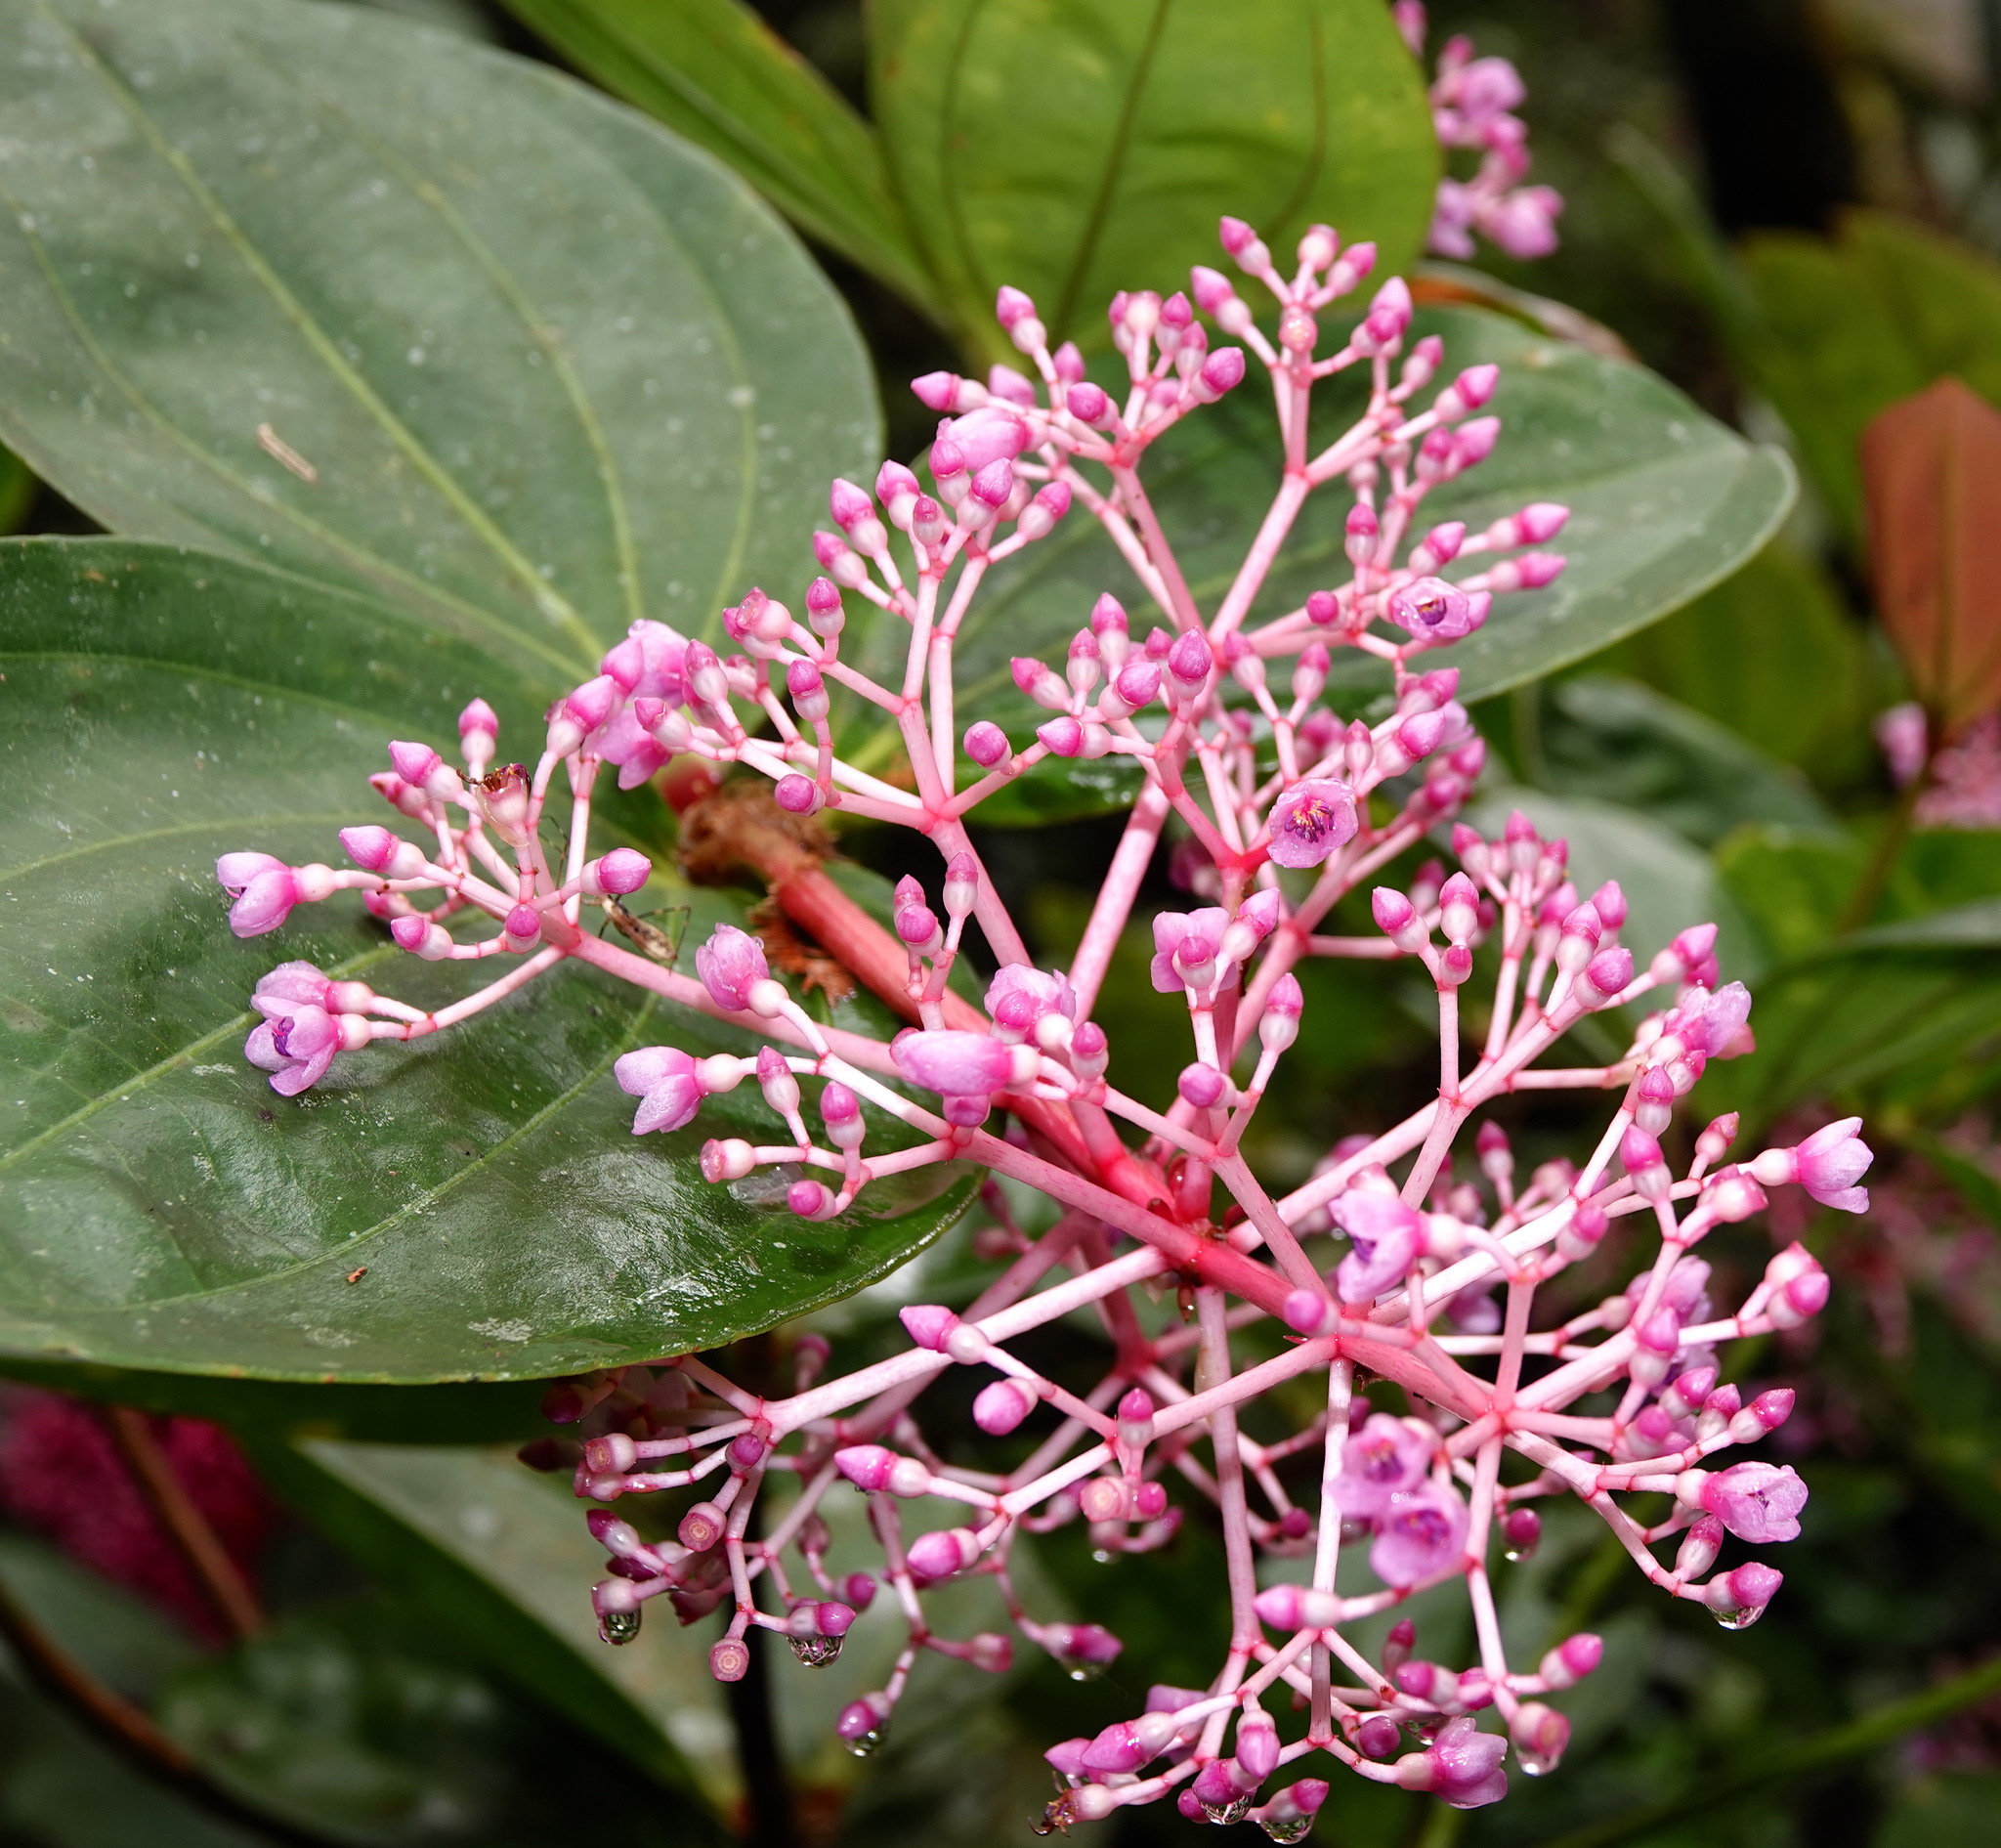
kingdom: Plantae
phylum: Tracheophyta
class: Magnoliopsida
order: Myrtales
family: Melastomataceae
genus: Medinilla
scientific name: Medinilla speciosa
